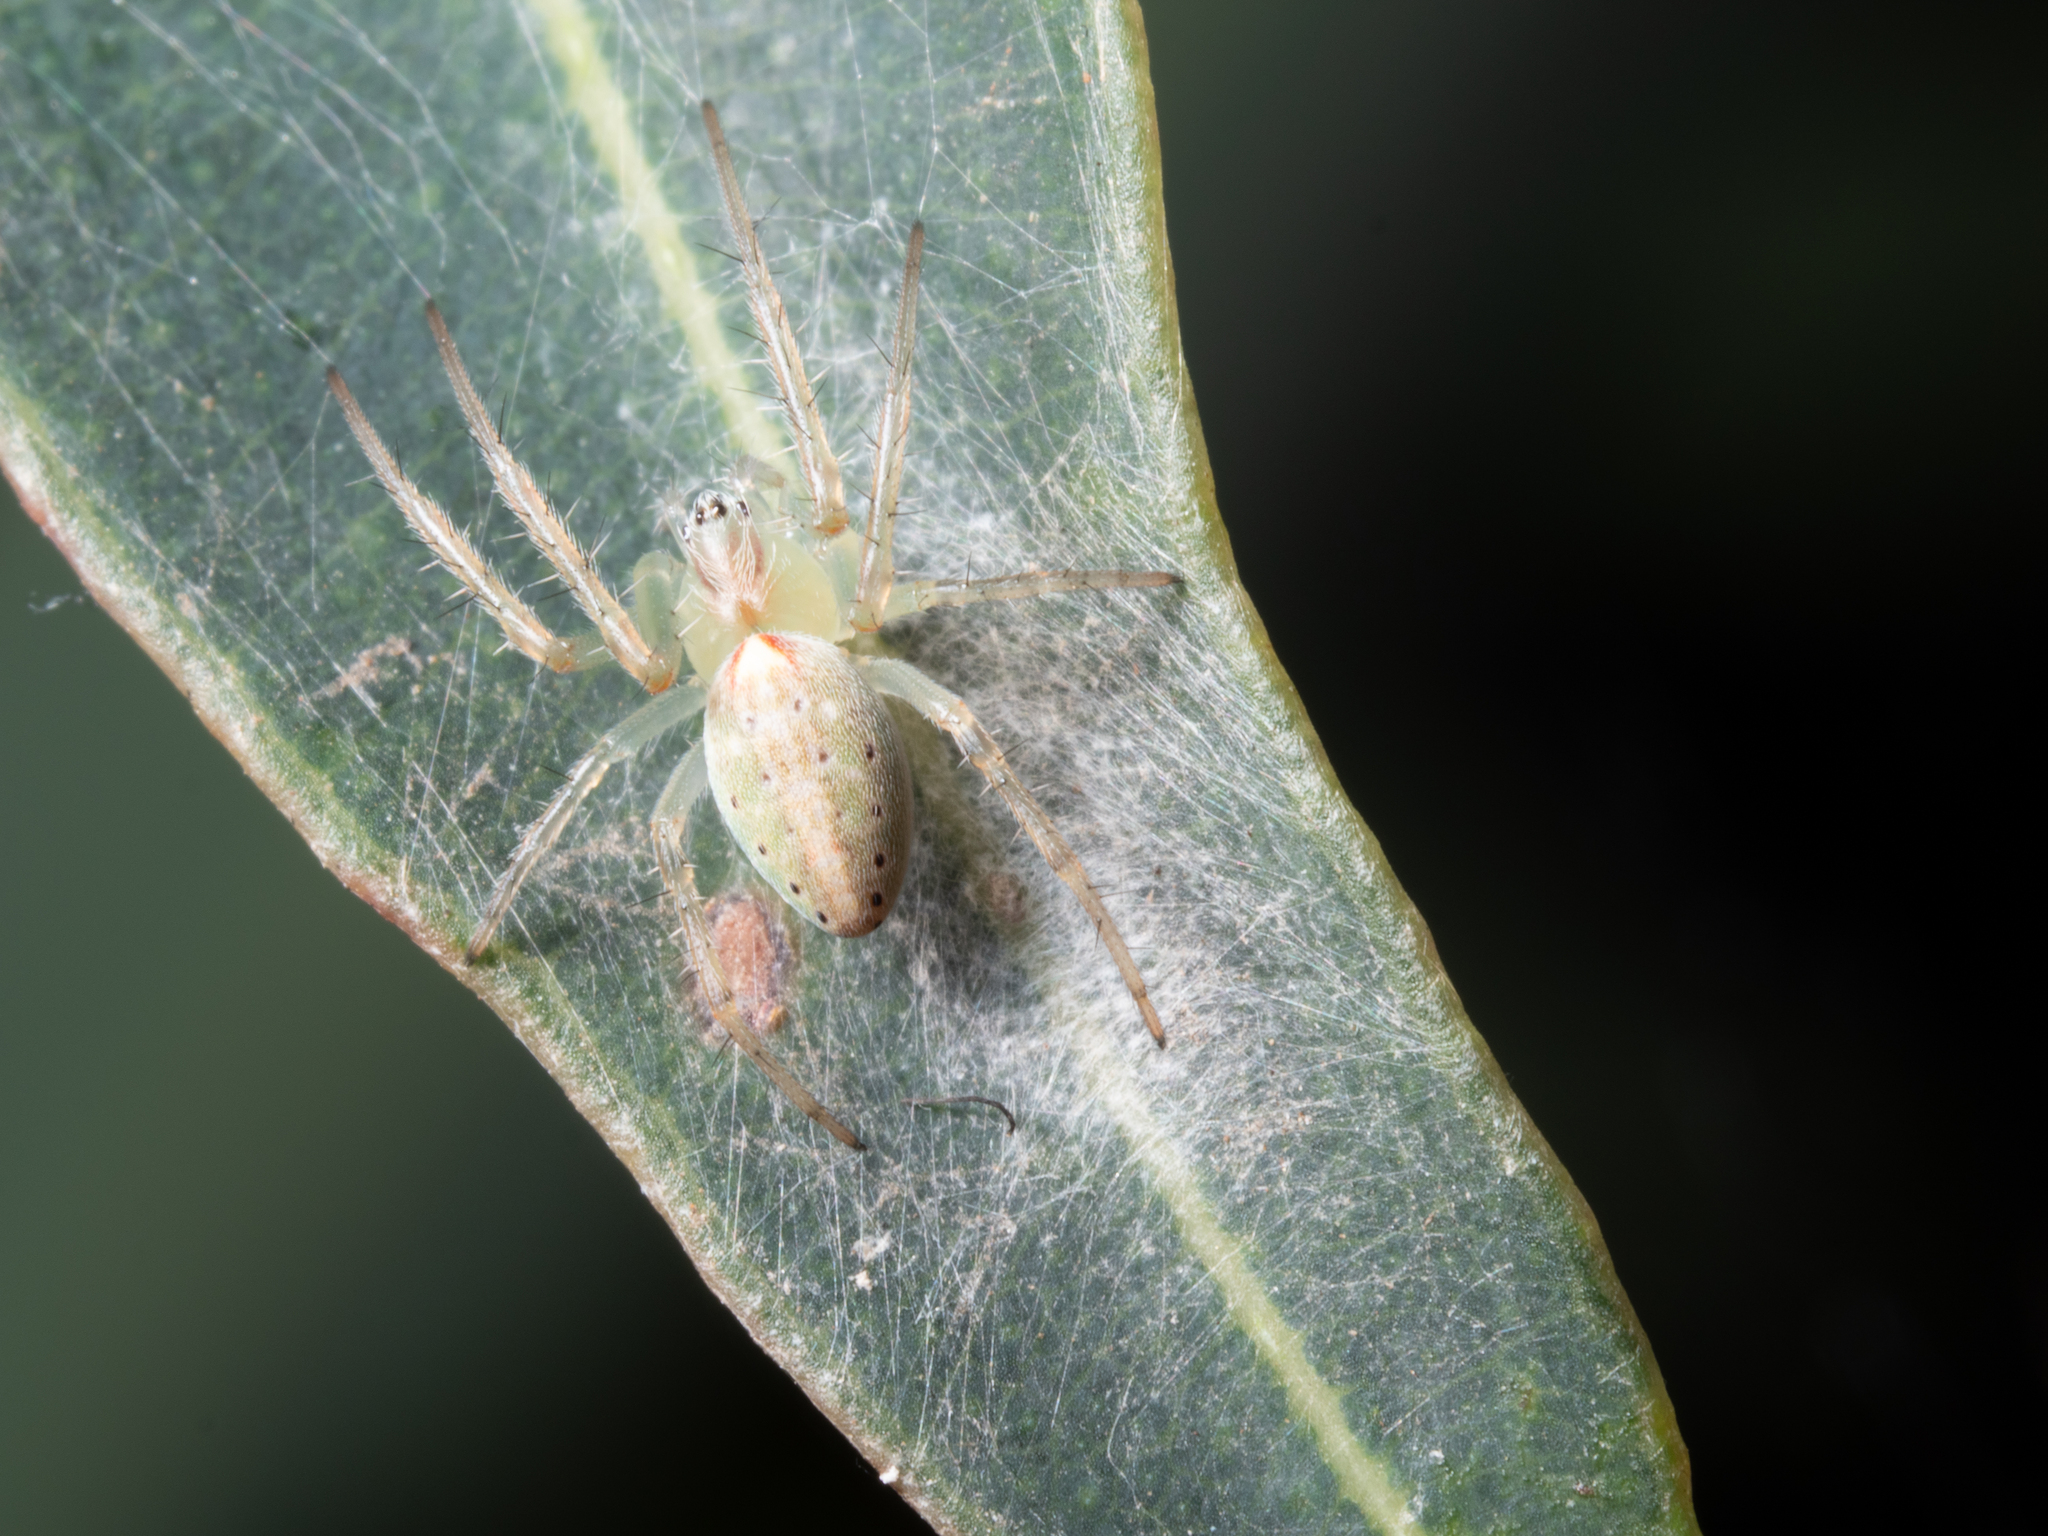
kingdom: Animalia
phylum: Arthropoda
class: Arachnida
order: Araneae
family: Araneidae
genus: Araneus
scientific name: Araneus talipedatus
